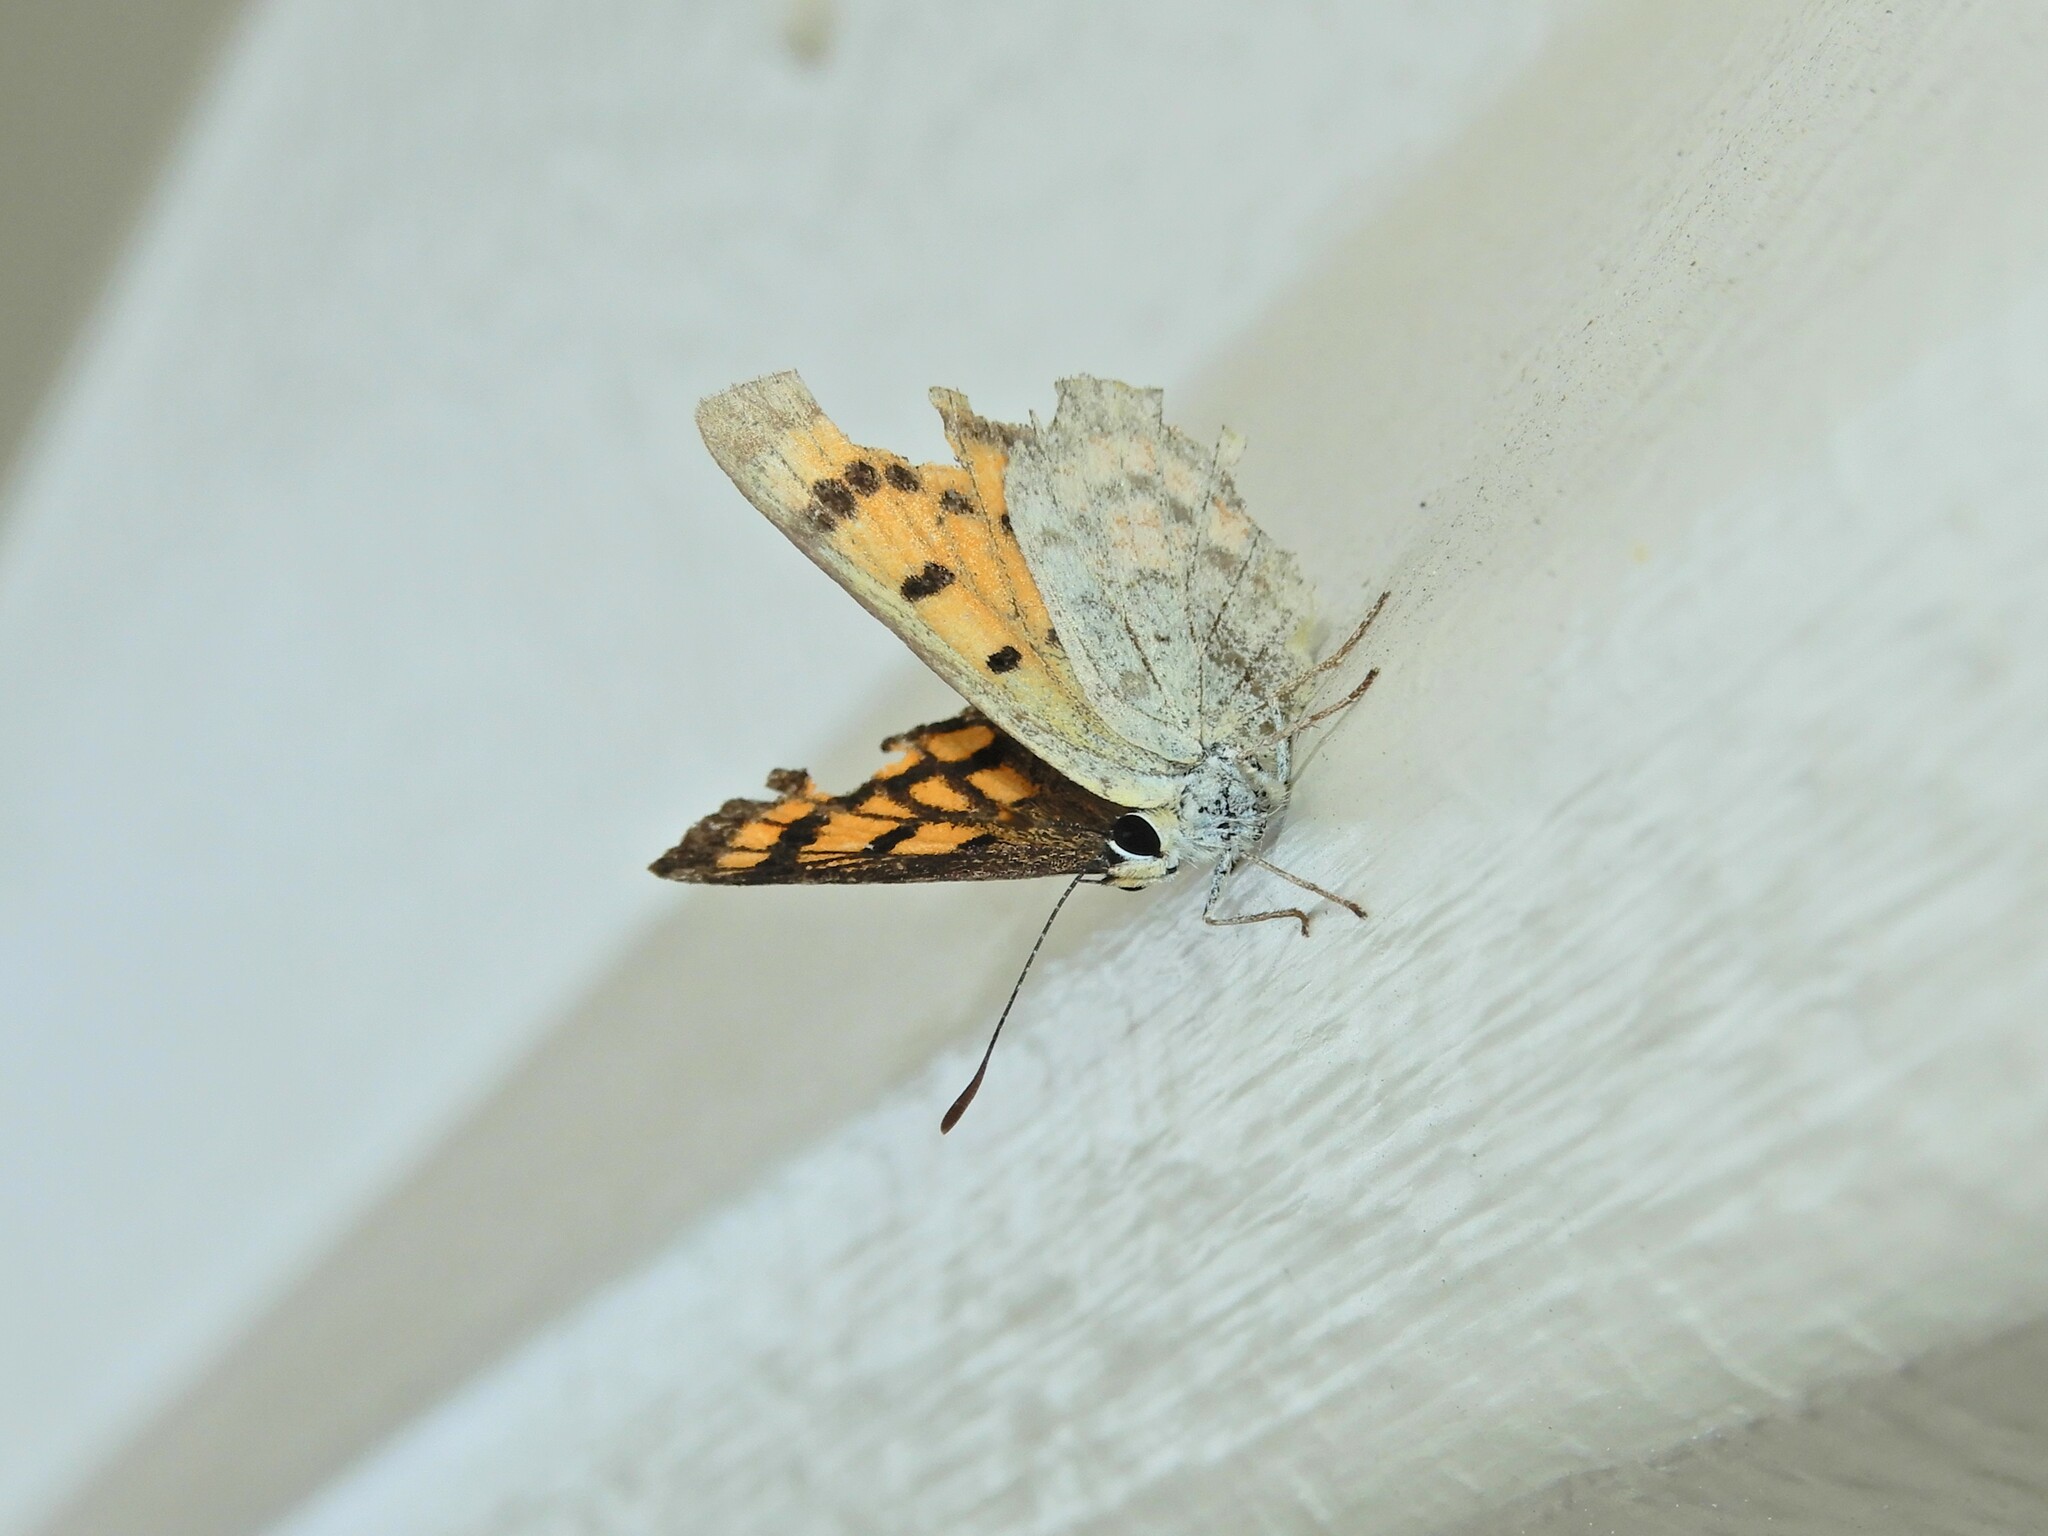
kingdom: Animalia
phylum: Arthropoda
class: Insecta
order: Lepidoptera
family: Lycaenidae
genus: Lycaena
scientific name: Lycaena salustius
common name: North island coastal copper
